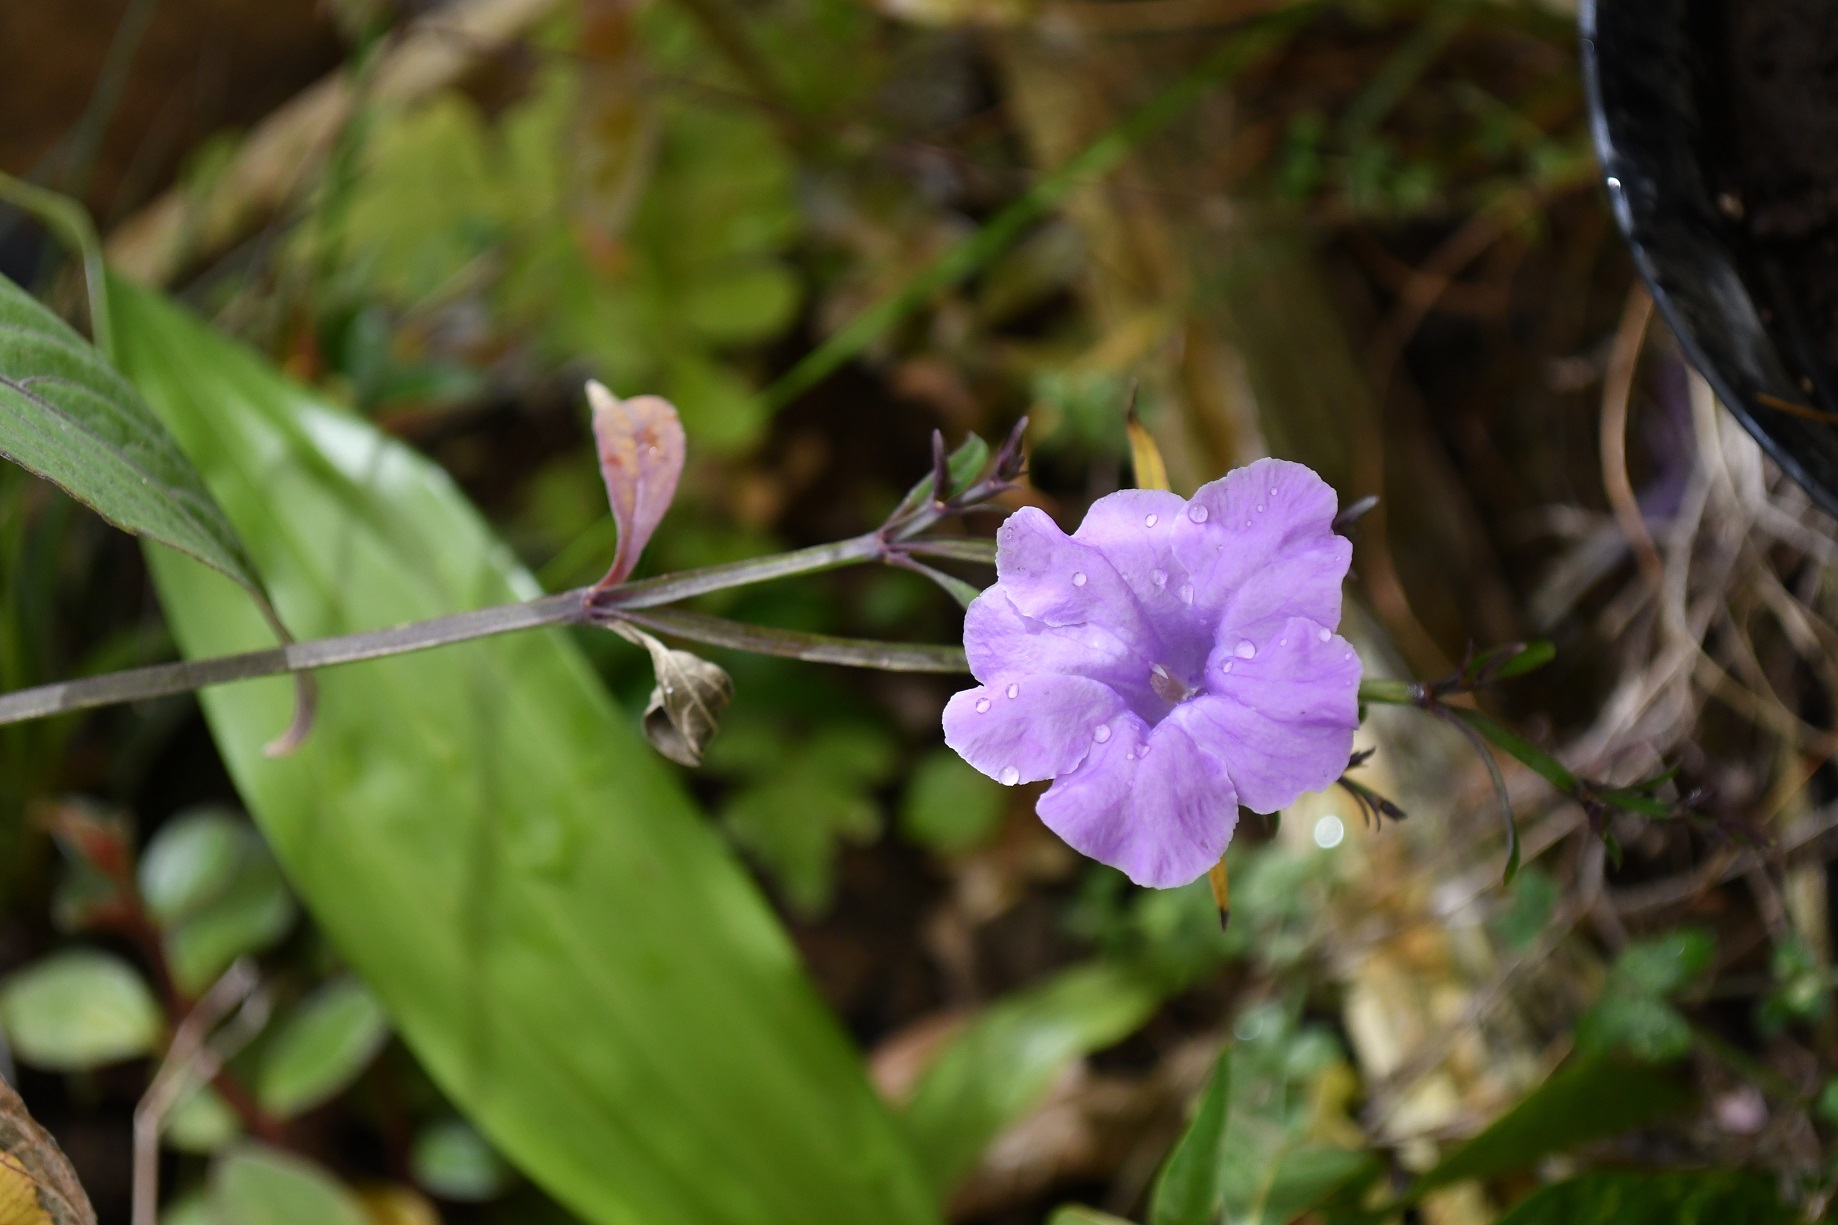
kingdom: Plantae
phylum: Tracheophyta
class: Magnoliopsida
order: Lamiales
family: Acanthaceae
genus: Ruellia
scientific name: Ruellia breedlovei
